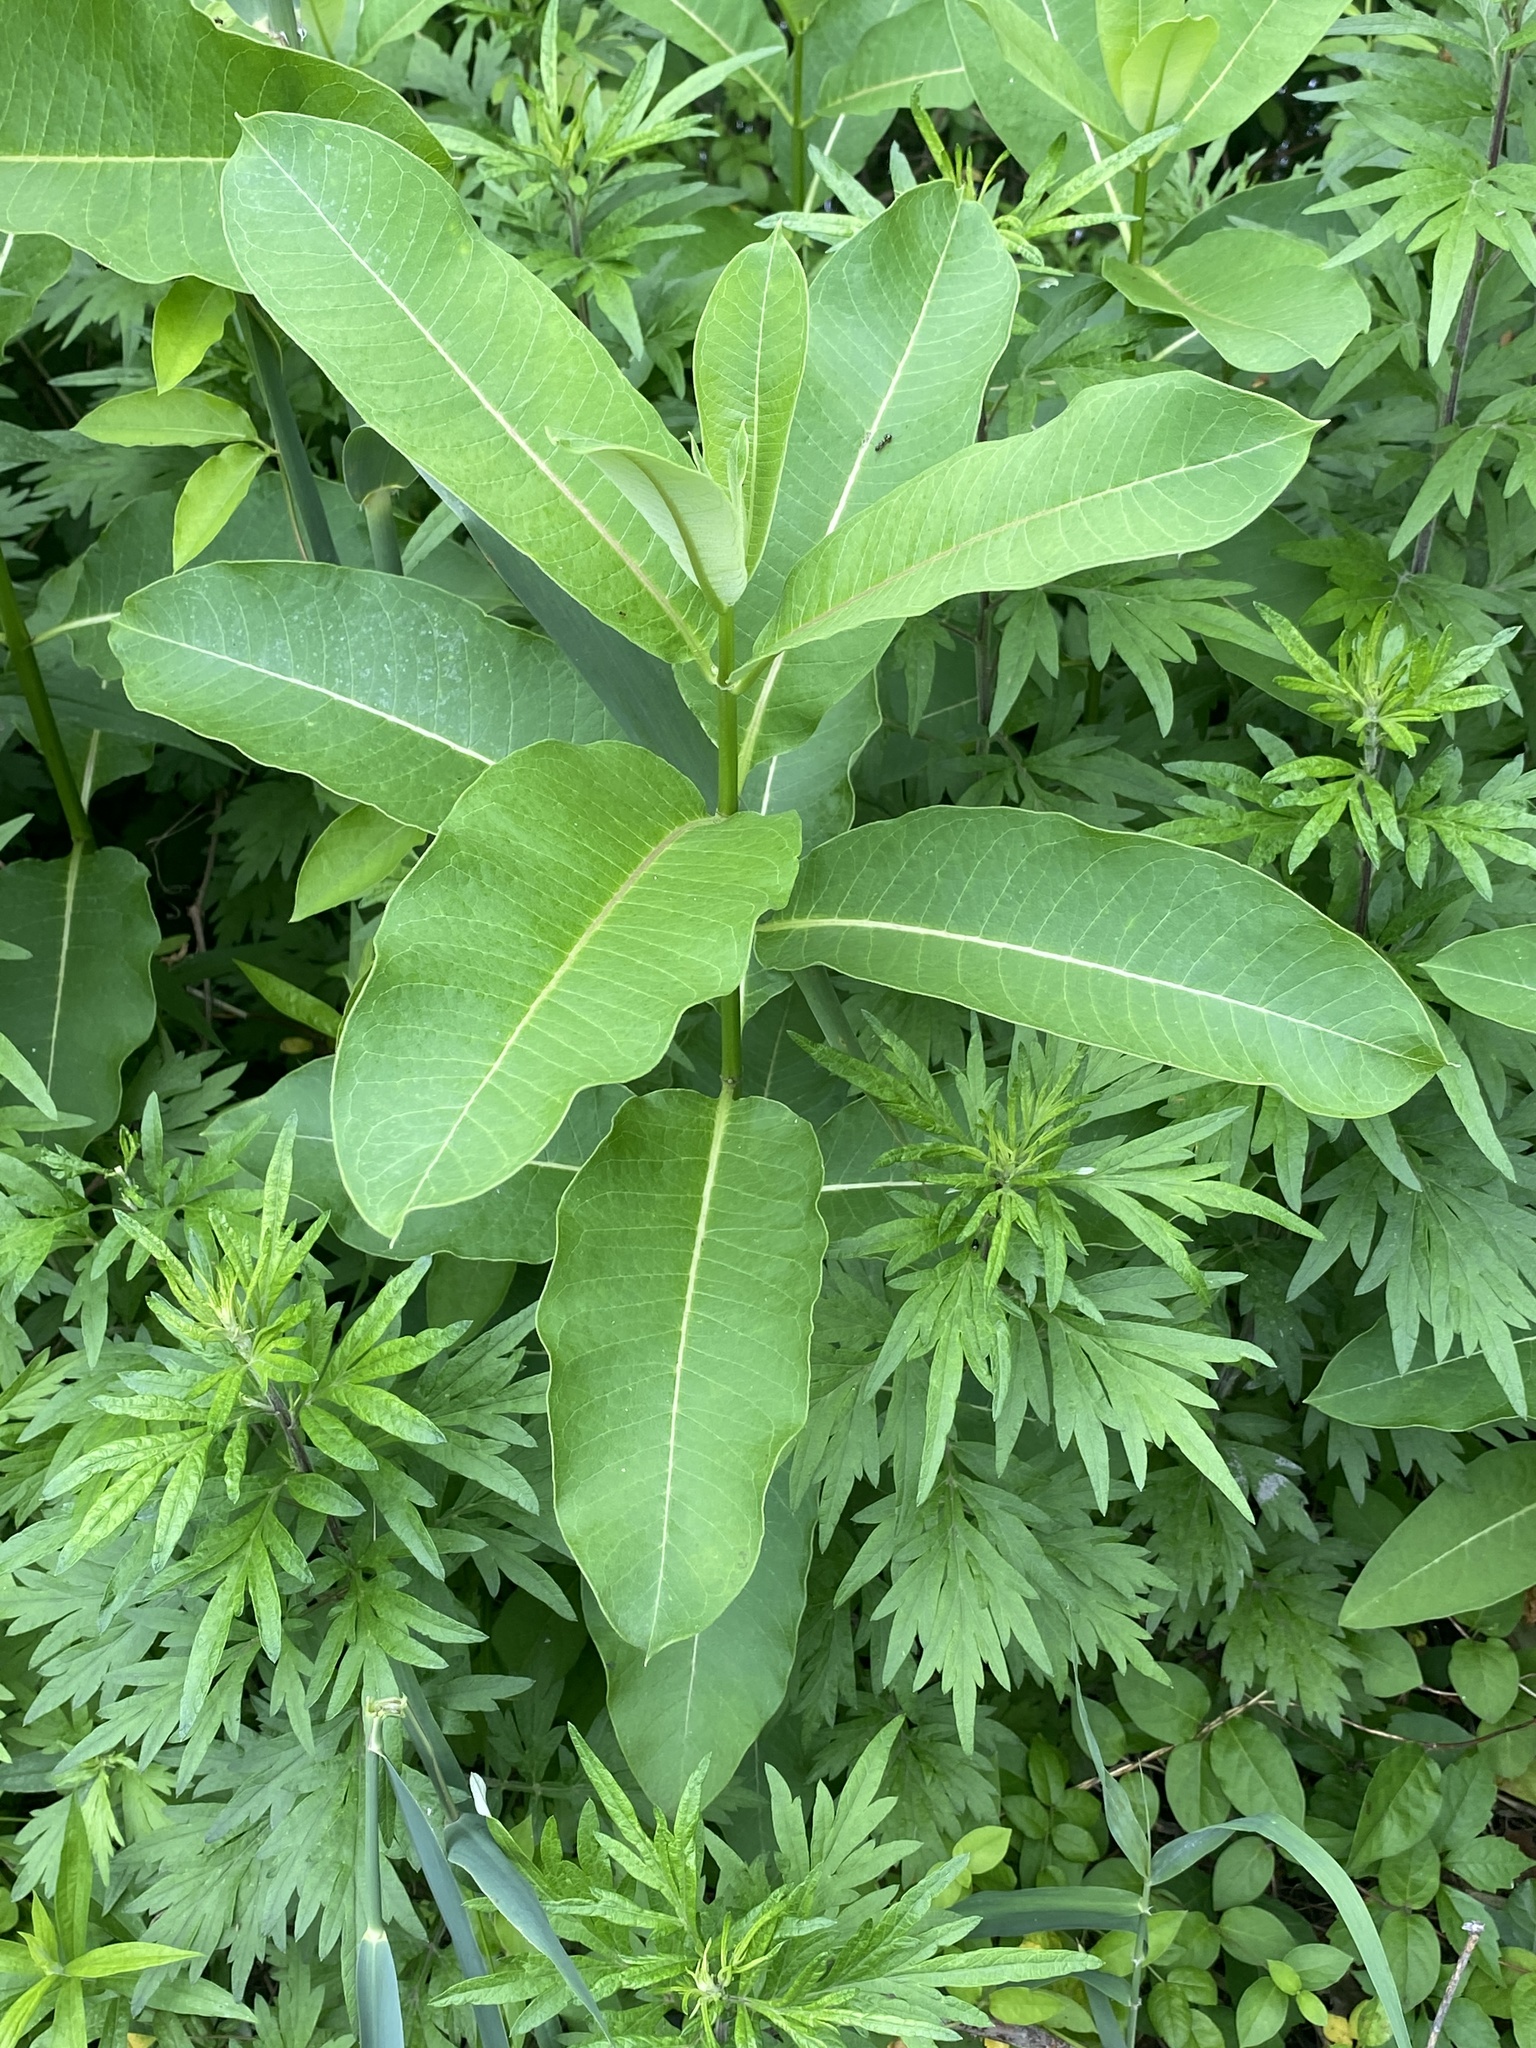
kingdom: Plantae
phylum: Tracheophyta
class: Magnoliopsida
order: Gentianales
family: Apocynaceae
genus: Asclepias
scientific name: Asclepias syriaca
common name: Common milkweed
